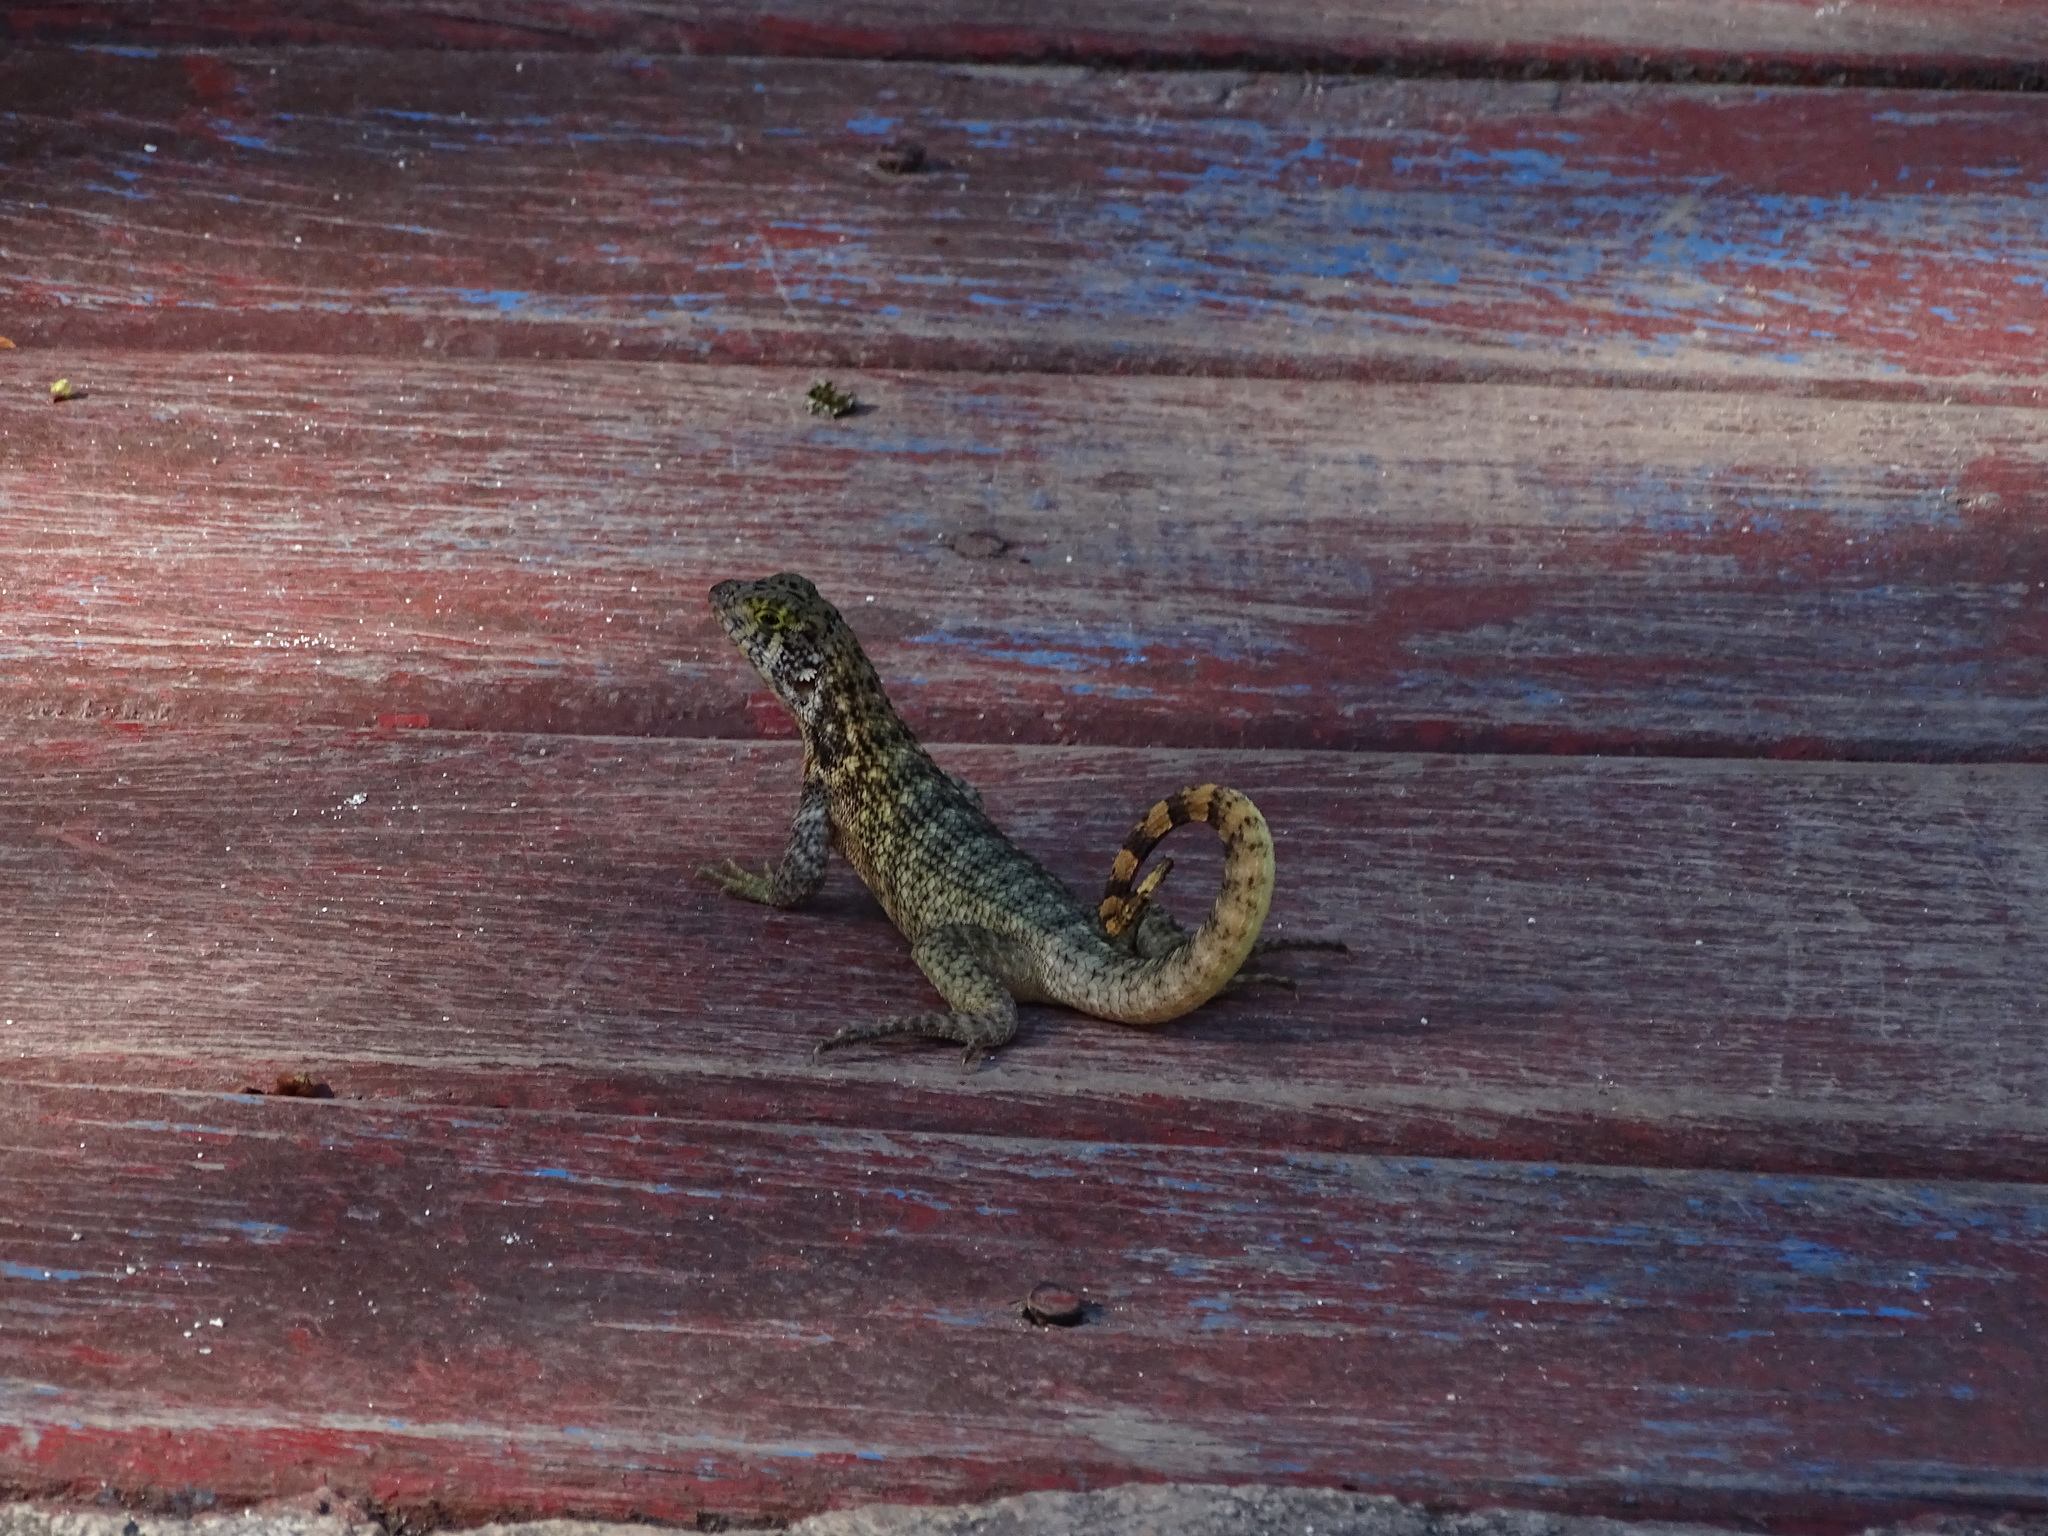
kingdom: Animalia
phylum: Chordata
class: Squamata
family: Leiocephalidae
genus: Leiocephalus
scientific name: Leiocephalus carinatus
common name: Northern curly-tailed lizard
